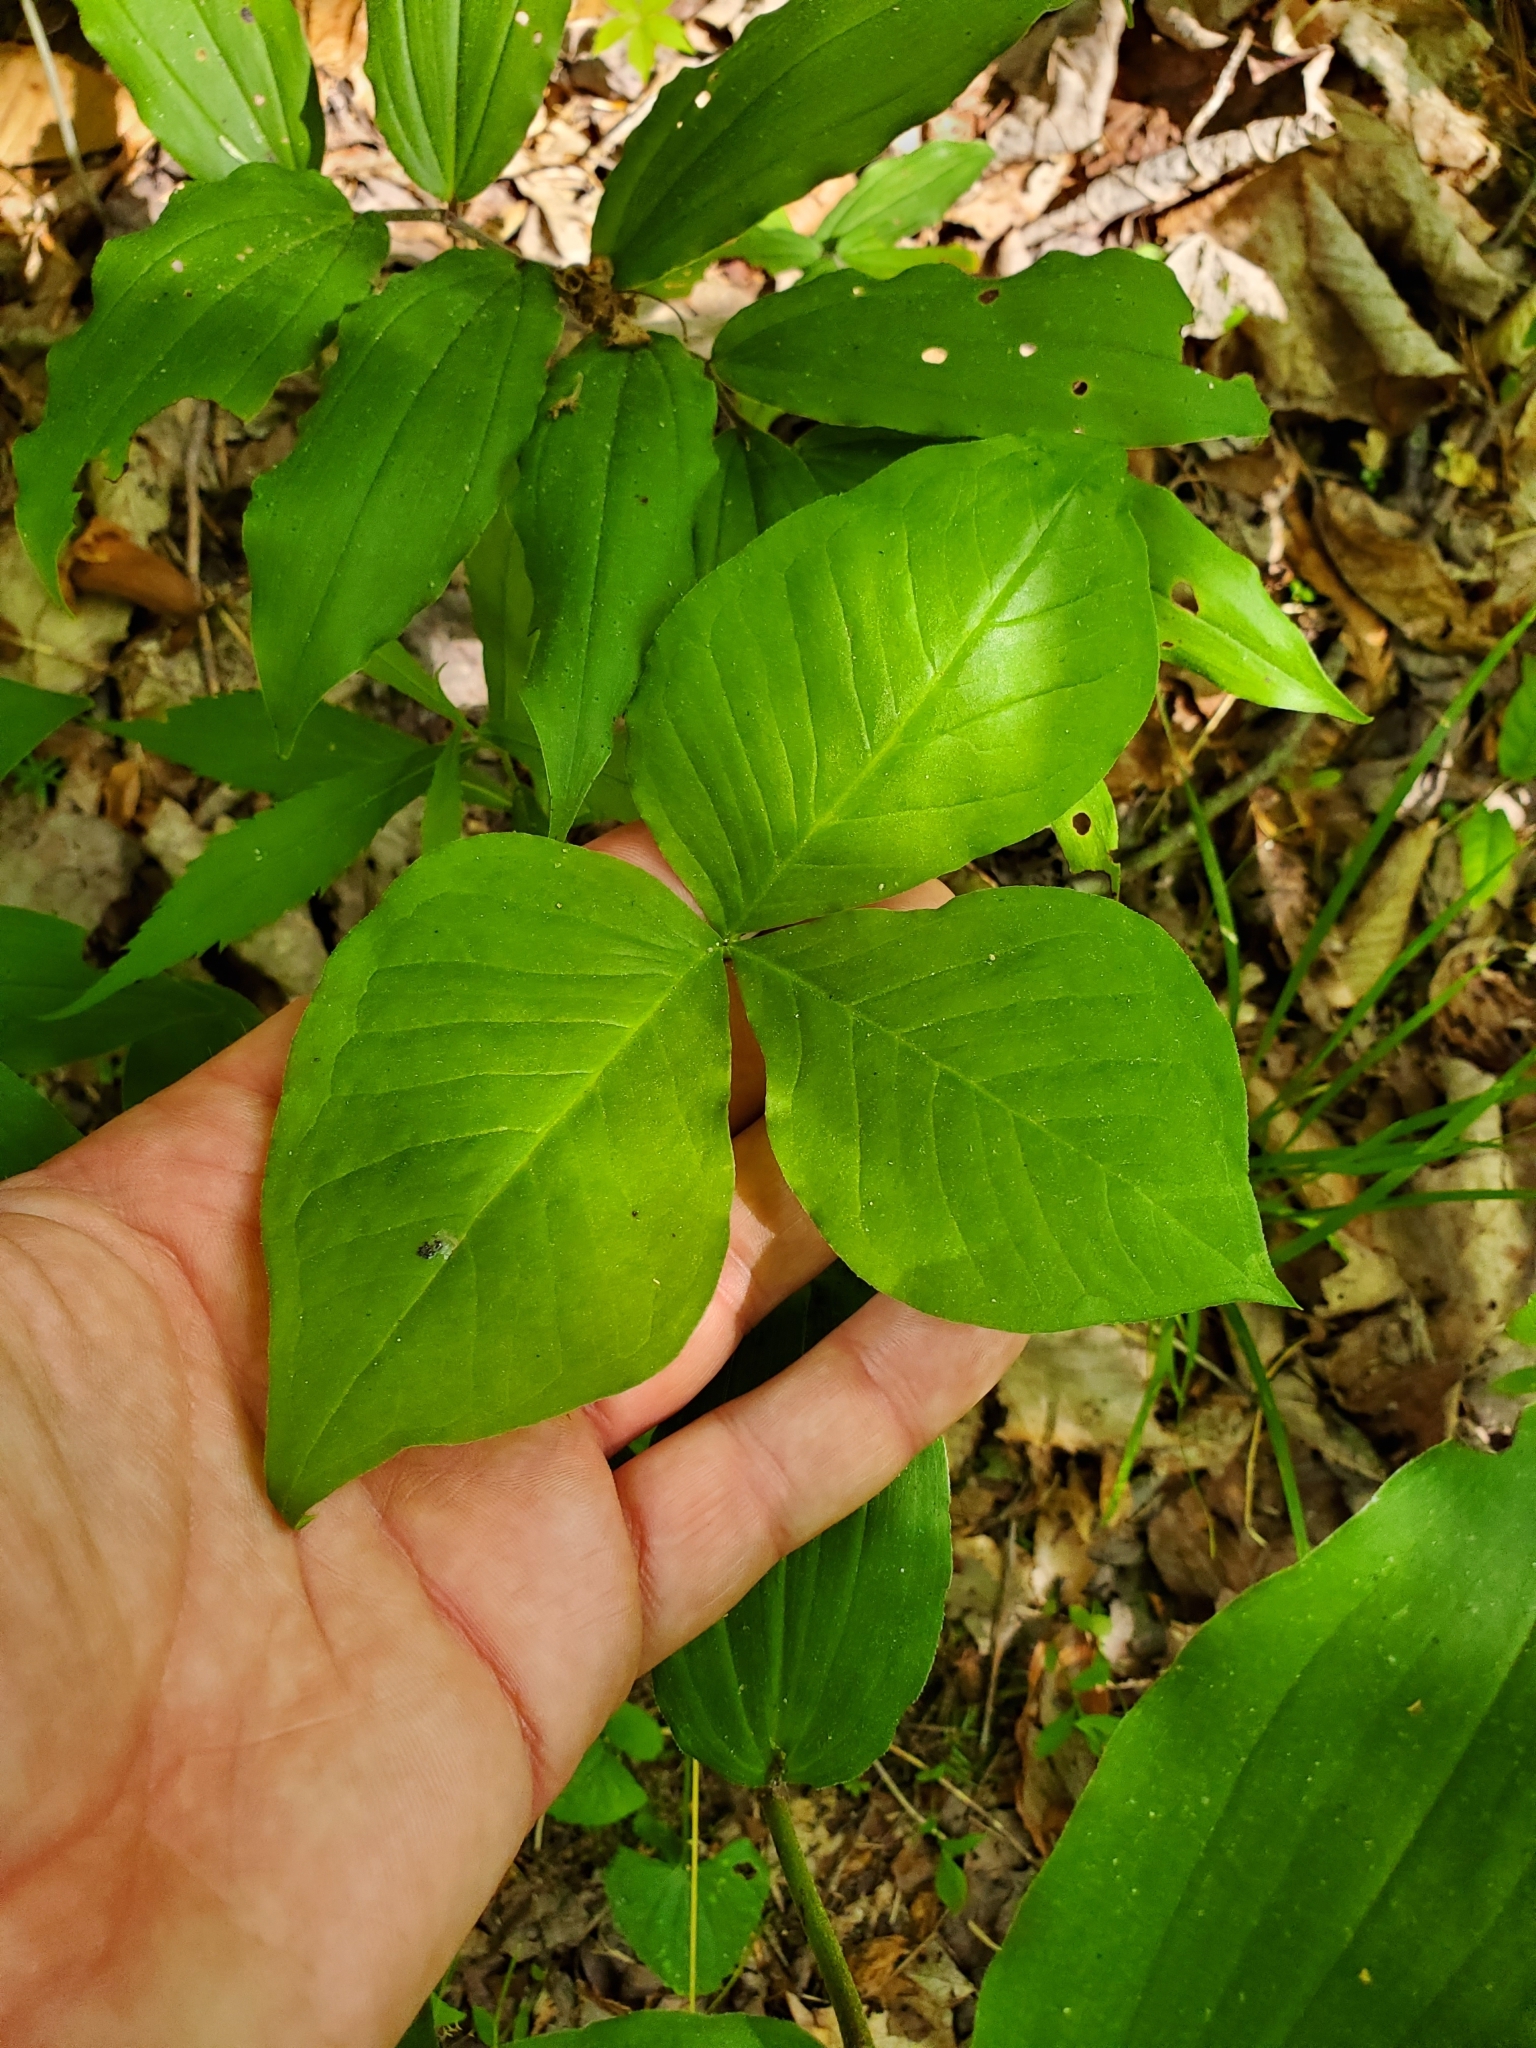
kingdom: Plantae
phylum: Tracheophyta
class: Liliopsida
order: Alismatales
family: Araceae
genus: Arisaema
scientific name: Arisaema triphyllum
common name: Jack-in-the-pulpit
